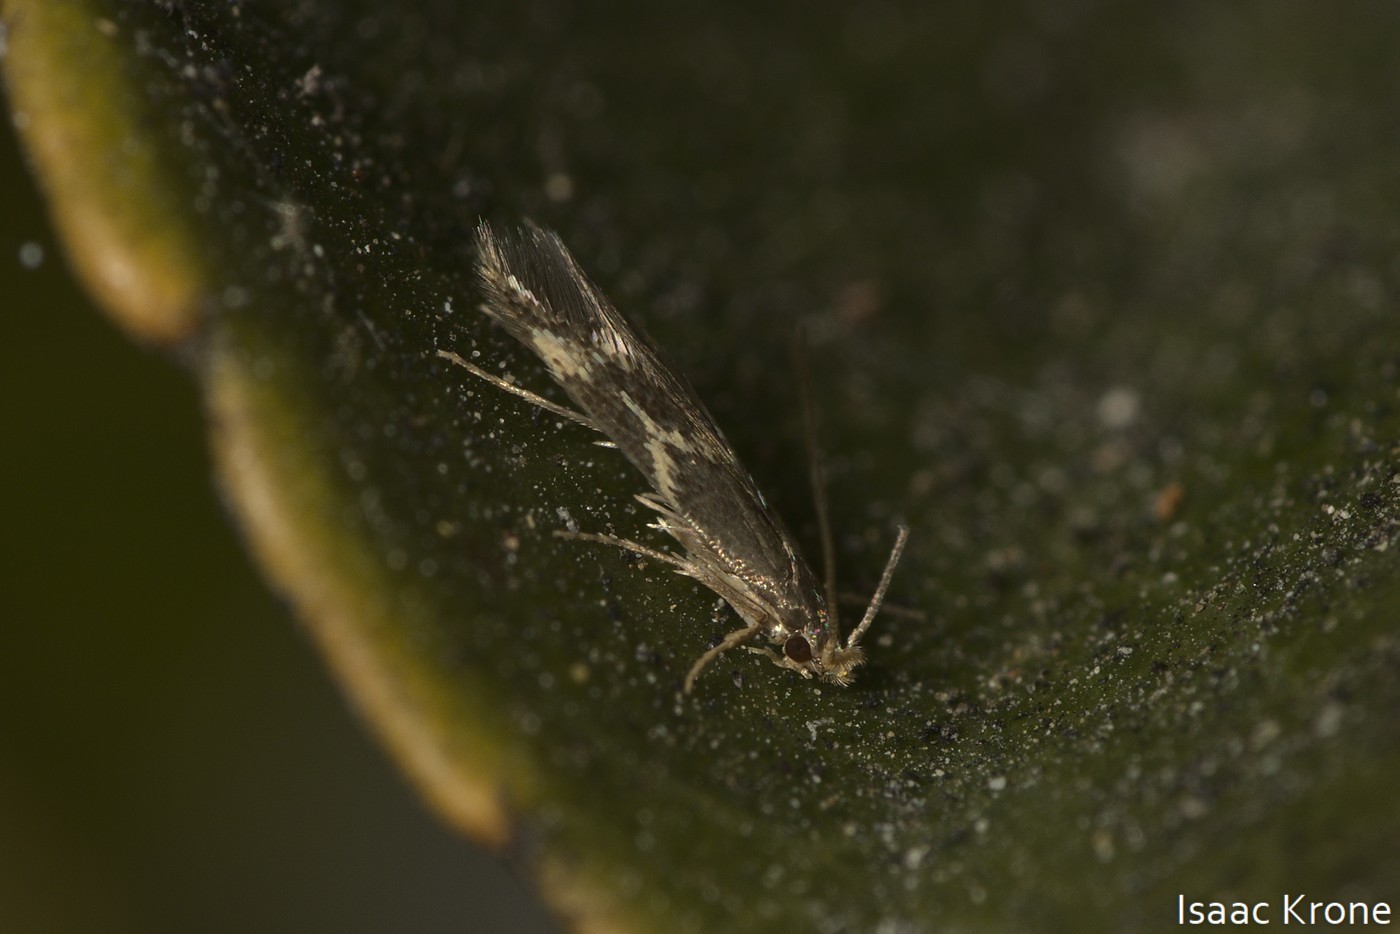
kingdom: Animalia
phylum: Arthropoda
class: Insecta
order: Lepidoptera
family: Tineidae
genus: Oinophila
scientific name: Oinophila v-flava
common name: Yellow v moth
